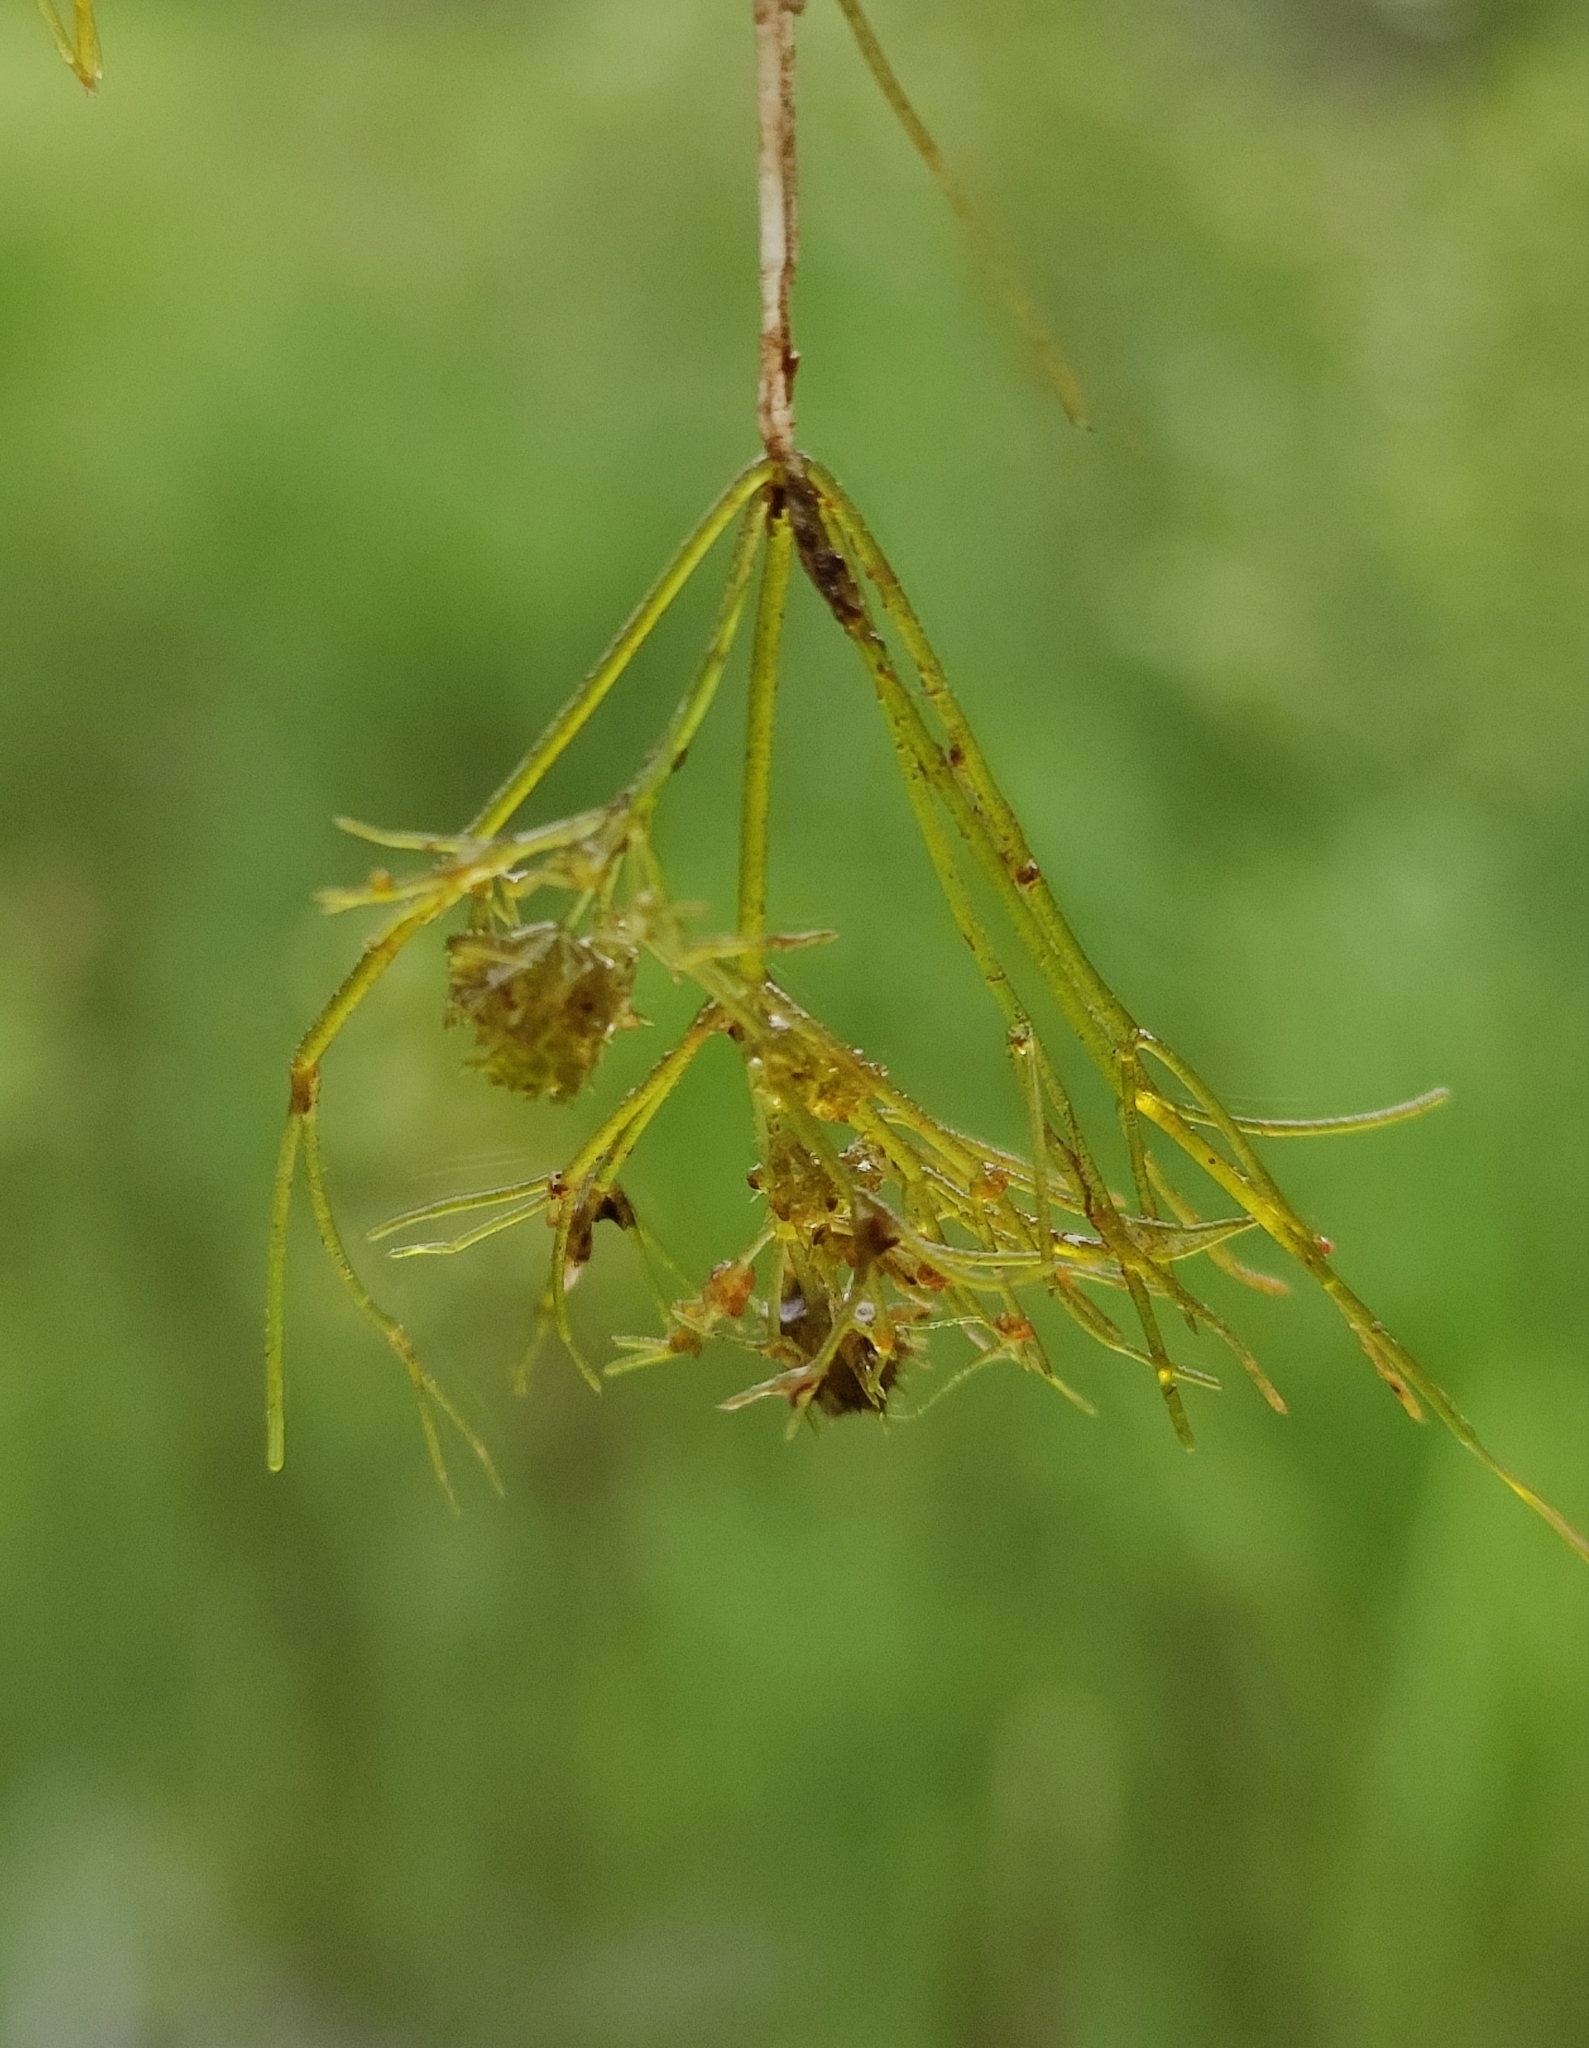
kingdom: Plantae
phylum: Charophyta
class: Charophyceae
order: Charales
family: Characeae
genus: Nitella
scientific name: Nitella mucronata
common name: Compact stonewort
